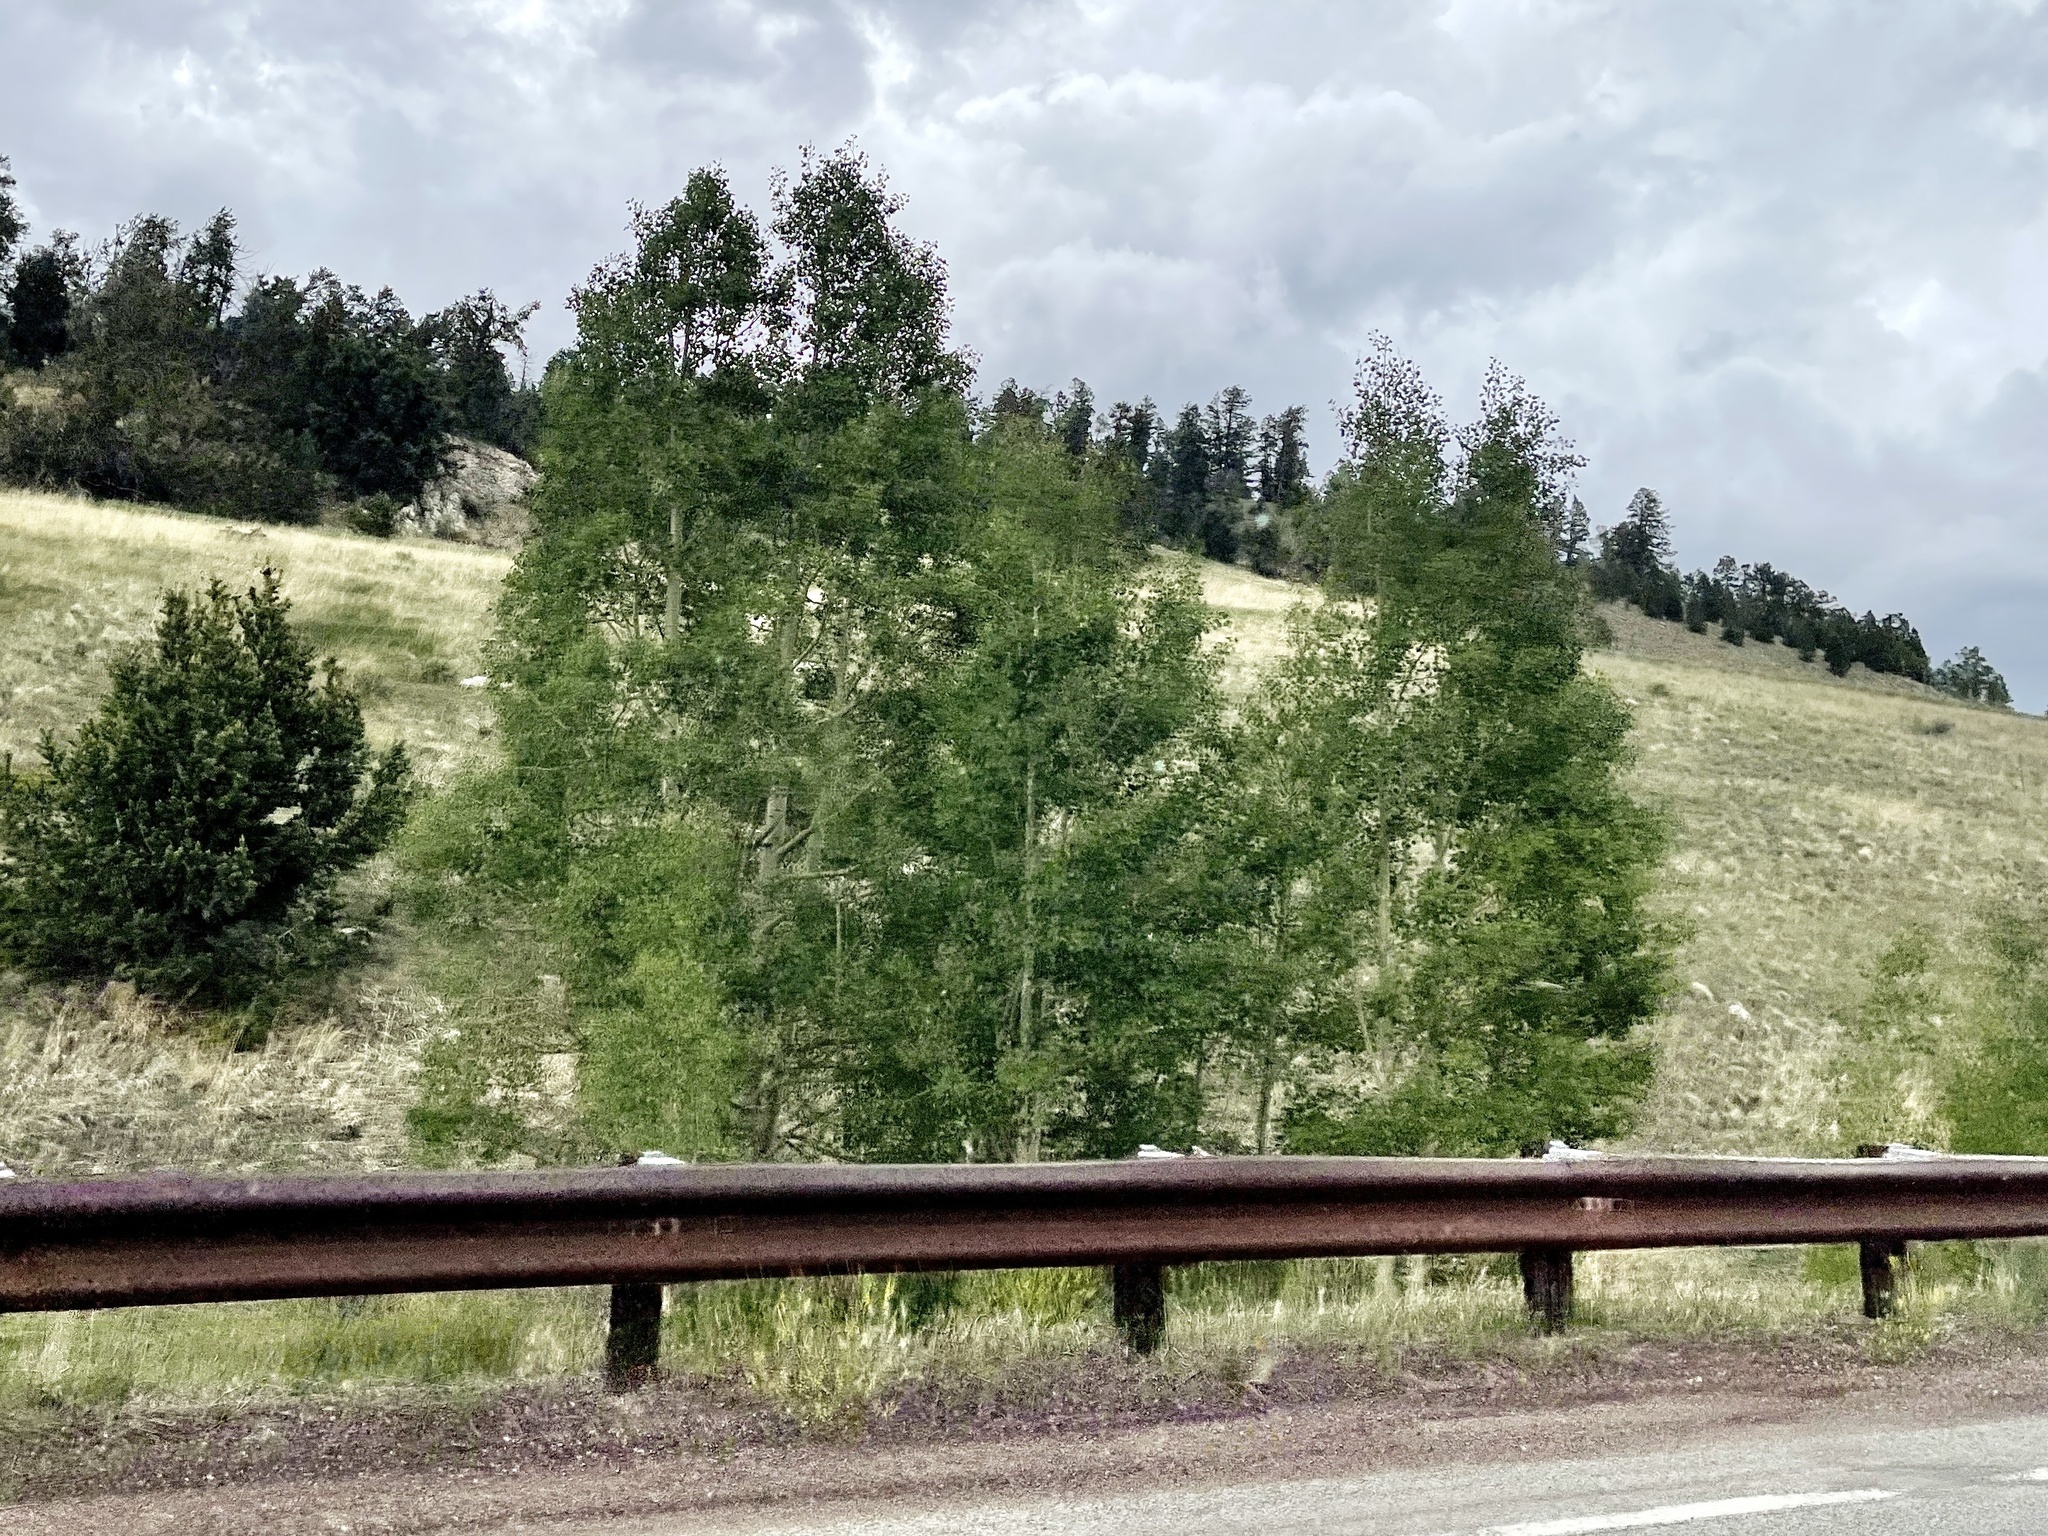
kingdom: Plantae
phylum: Tracheophyta
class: Magnoliopsida
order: Malpighiales
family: Salicaceae
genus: Populus
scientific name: Populus tremuloides
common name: Quaking aspen
